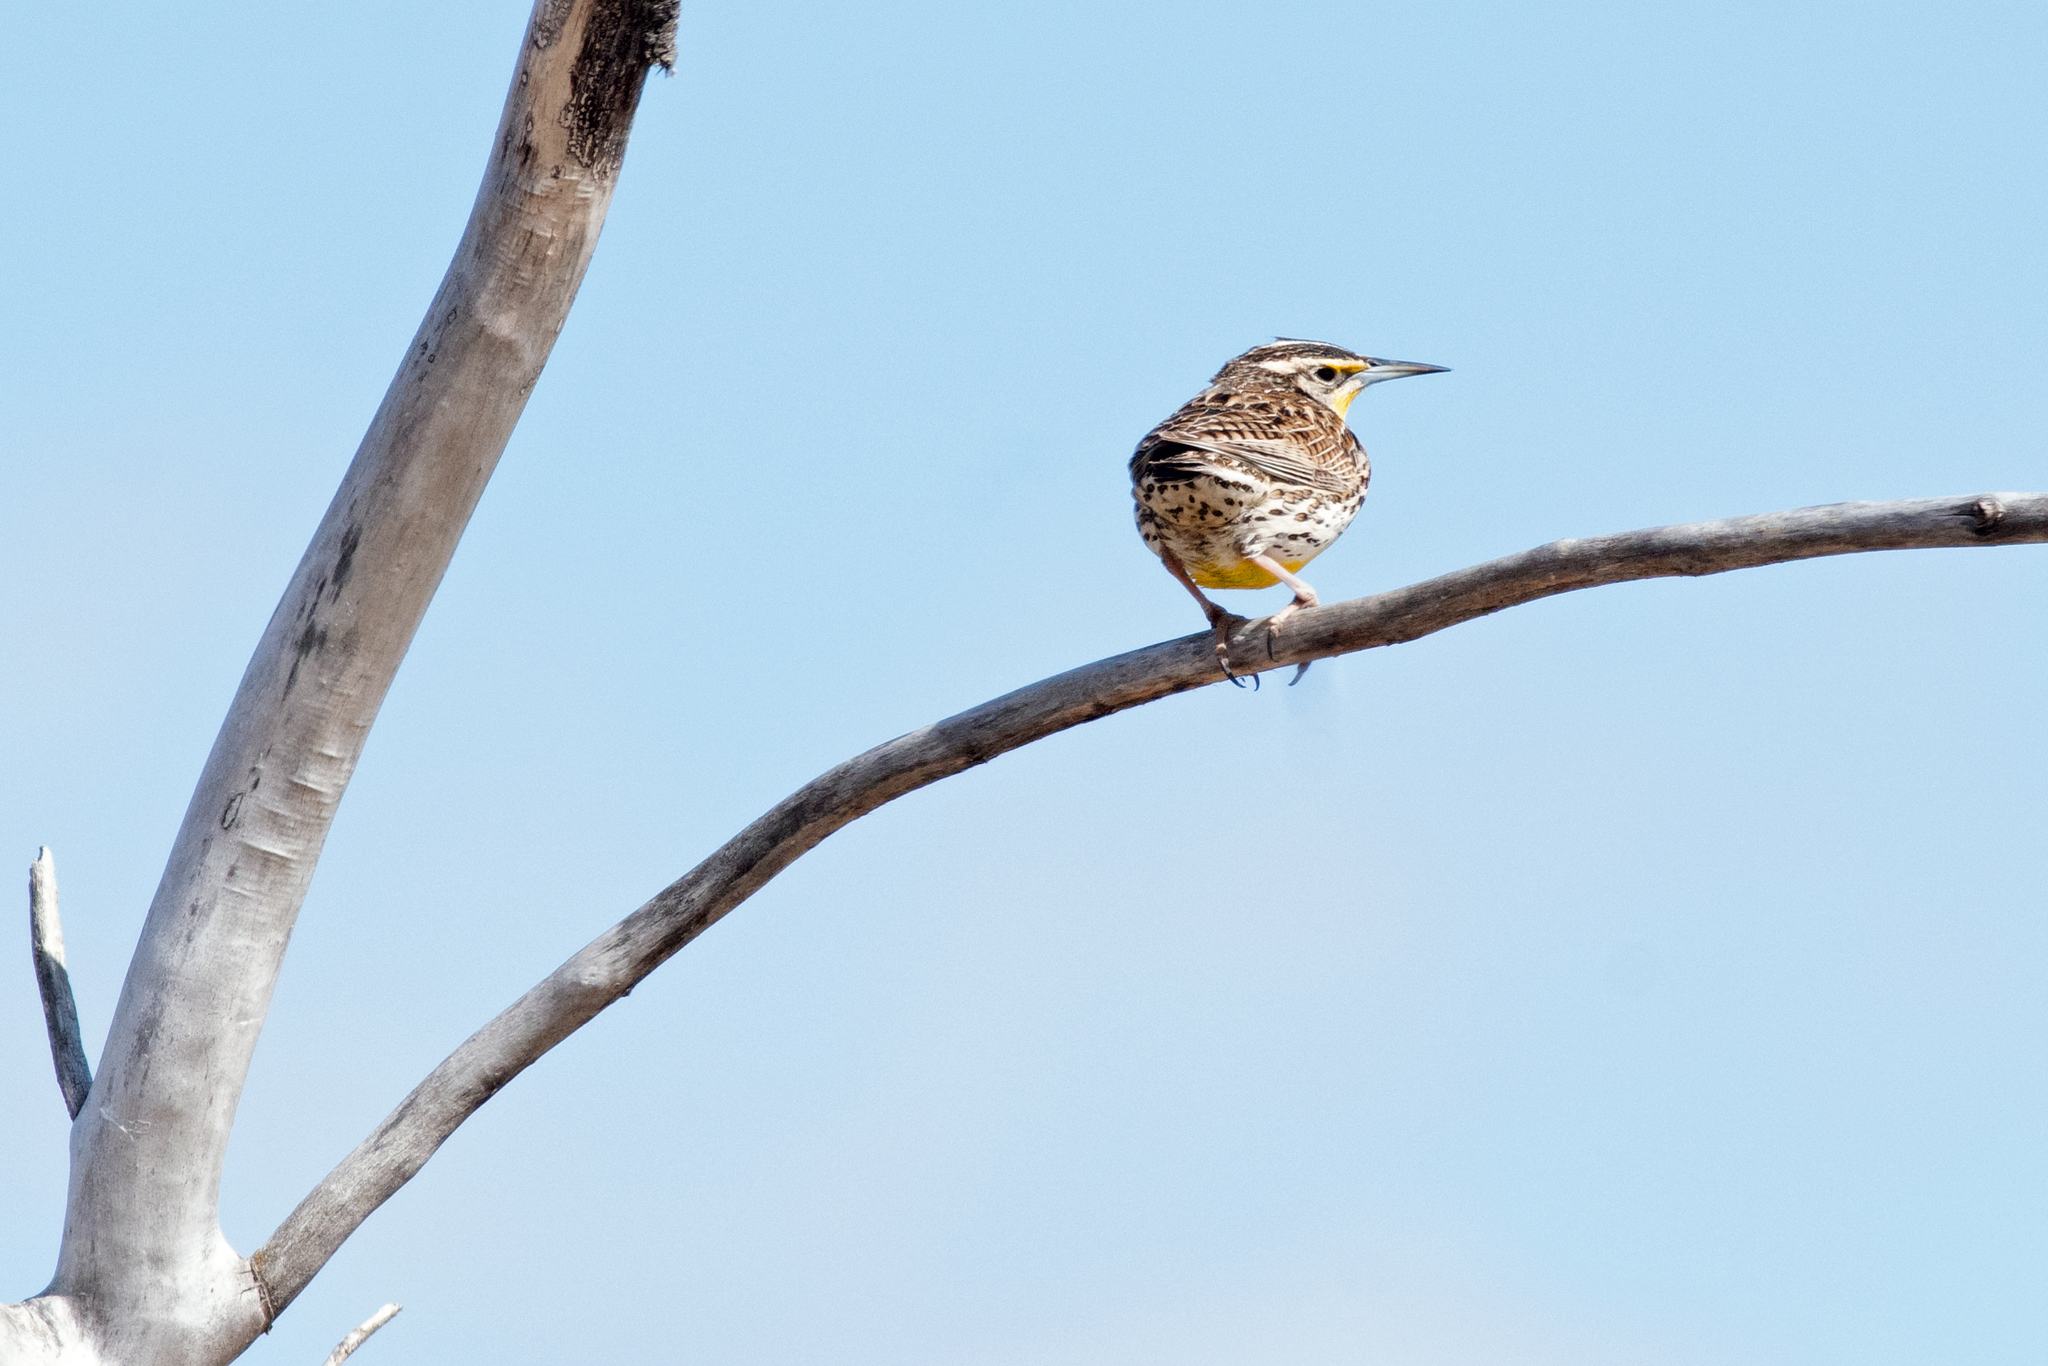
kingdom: Animalia
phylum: Chordata
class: Aves
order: Passeriformes
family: Icteridae
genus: Sturnella
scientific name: Sturnella neglecta
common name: Western meadowlark
